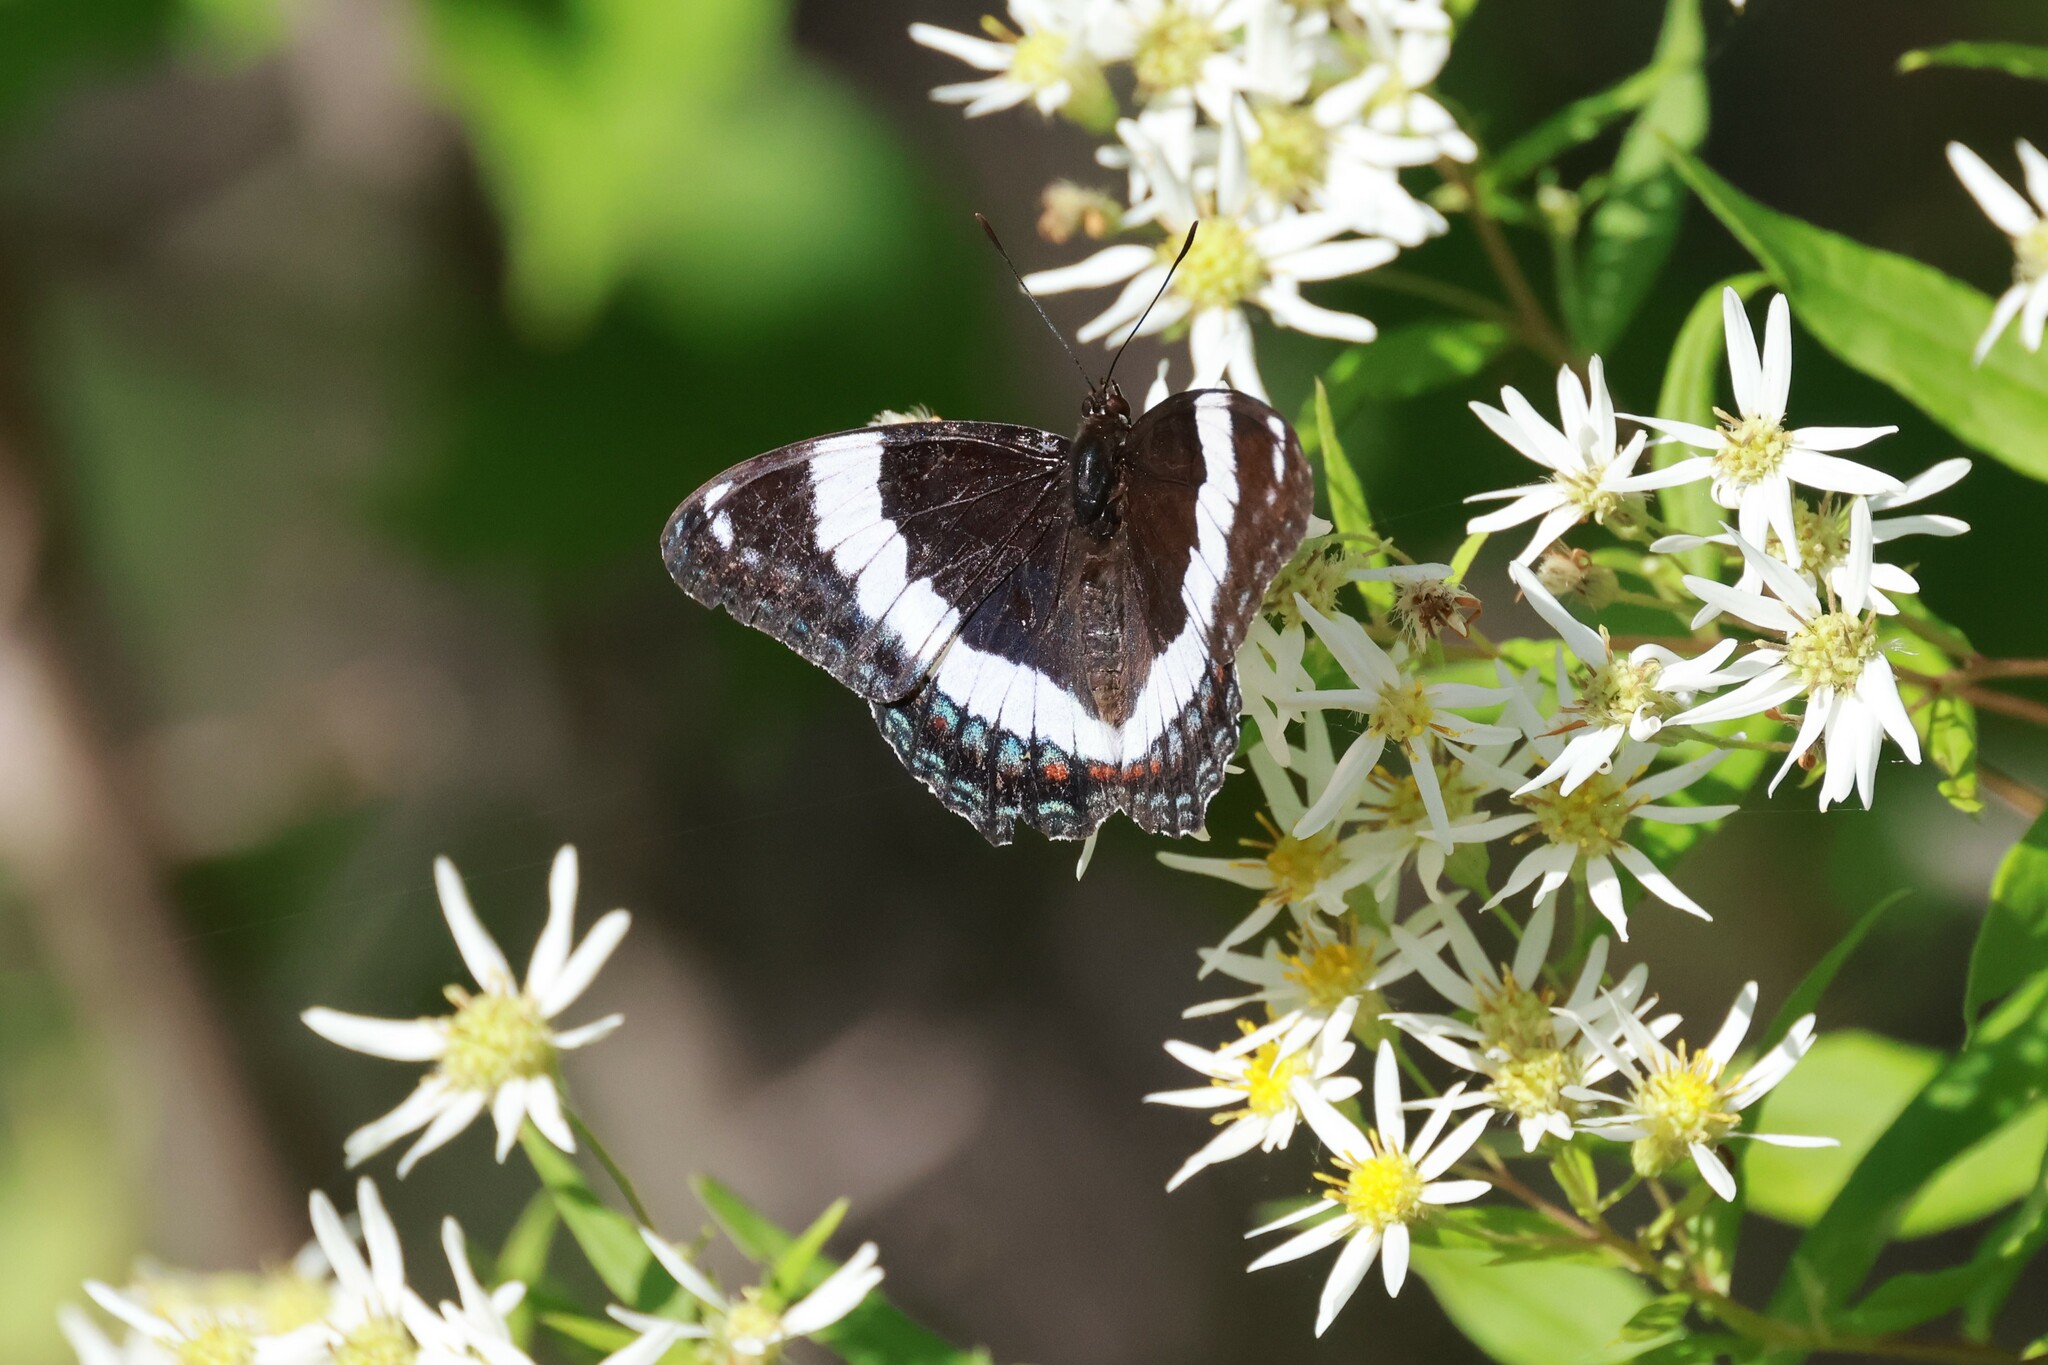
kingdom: Animalia
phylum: Arthropoda
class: Insecta
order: Lepidoptera
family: Nymphalidae
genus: Limenitis
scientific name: Limenitis arthemis
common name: Red-spotted admiral
